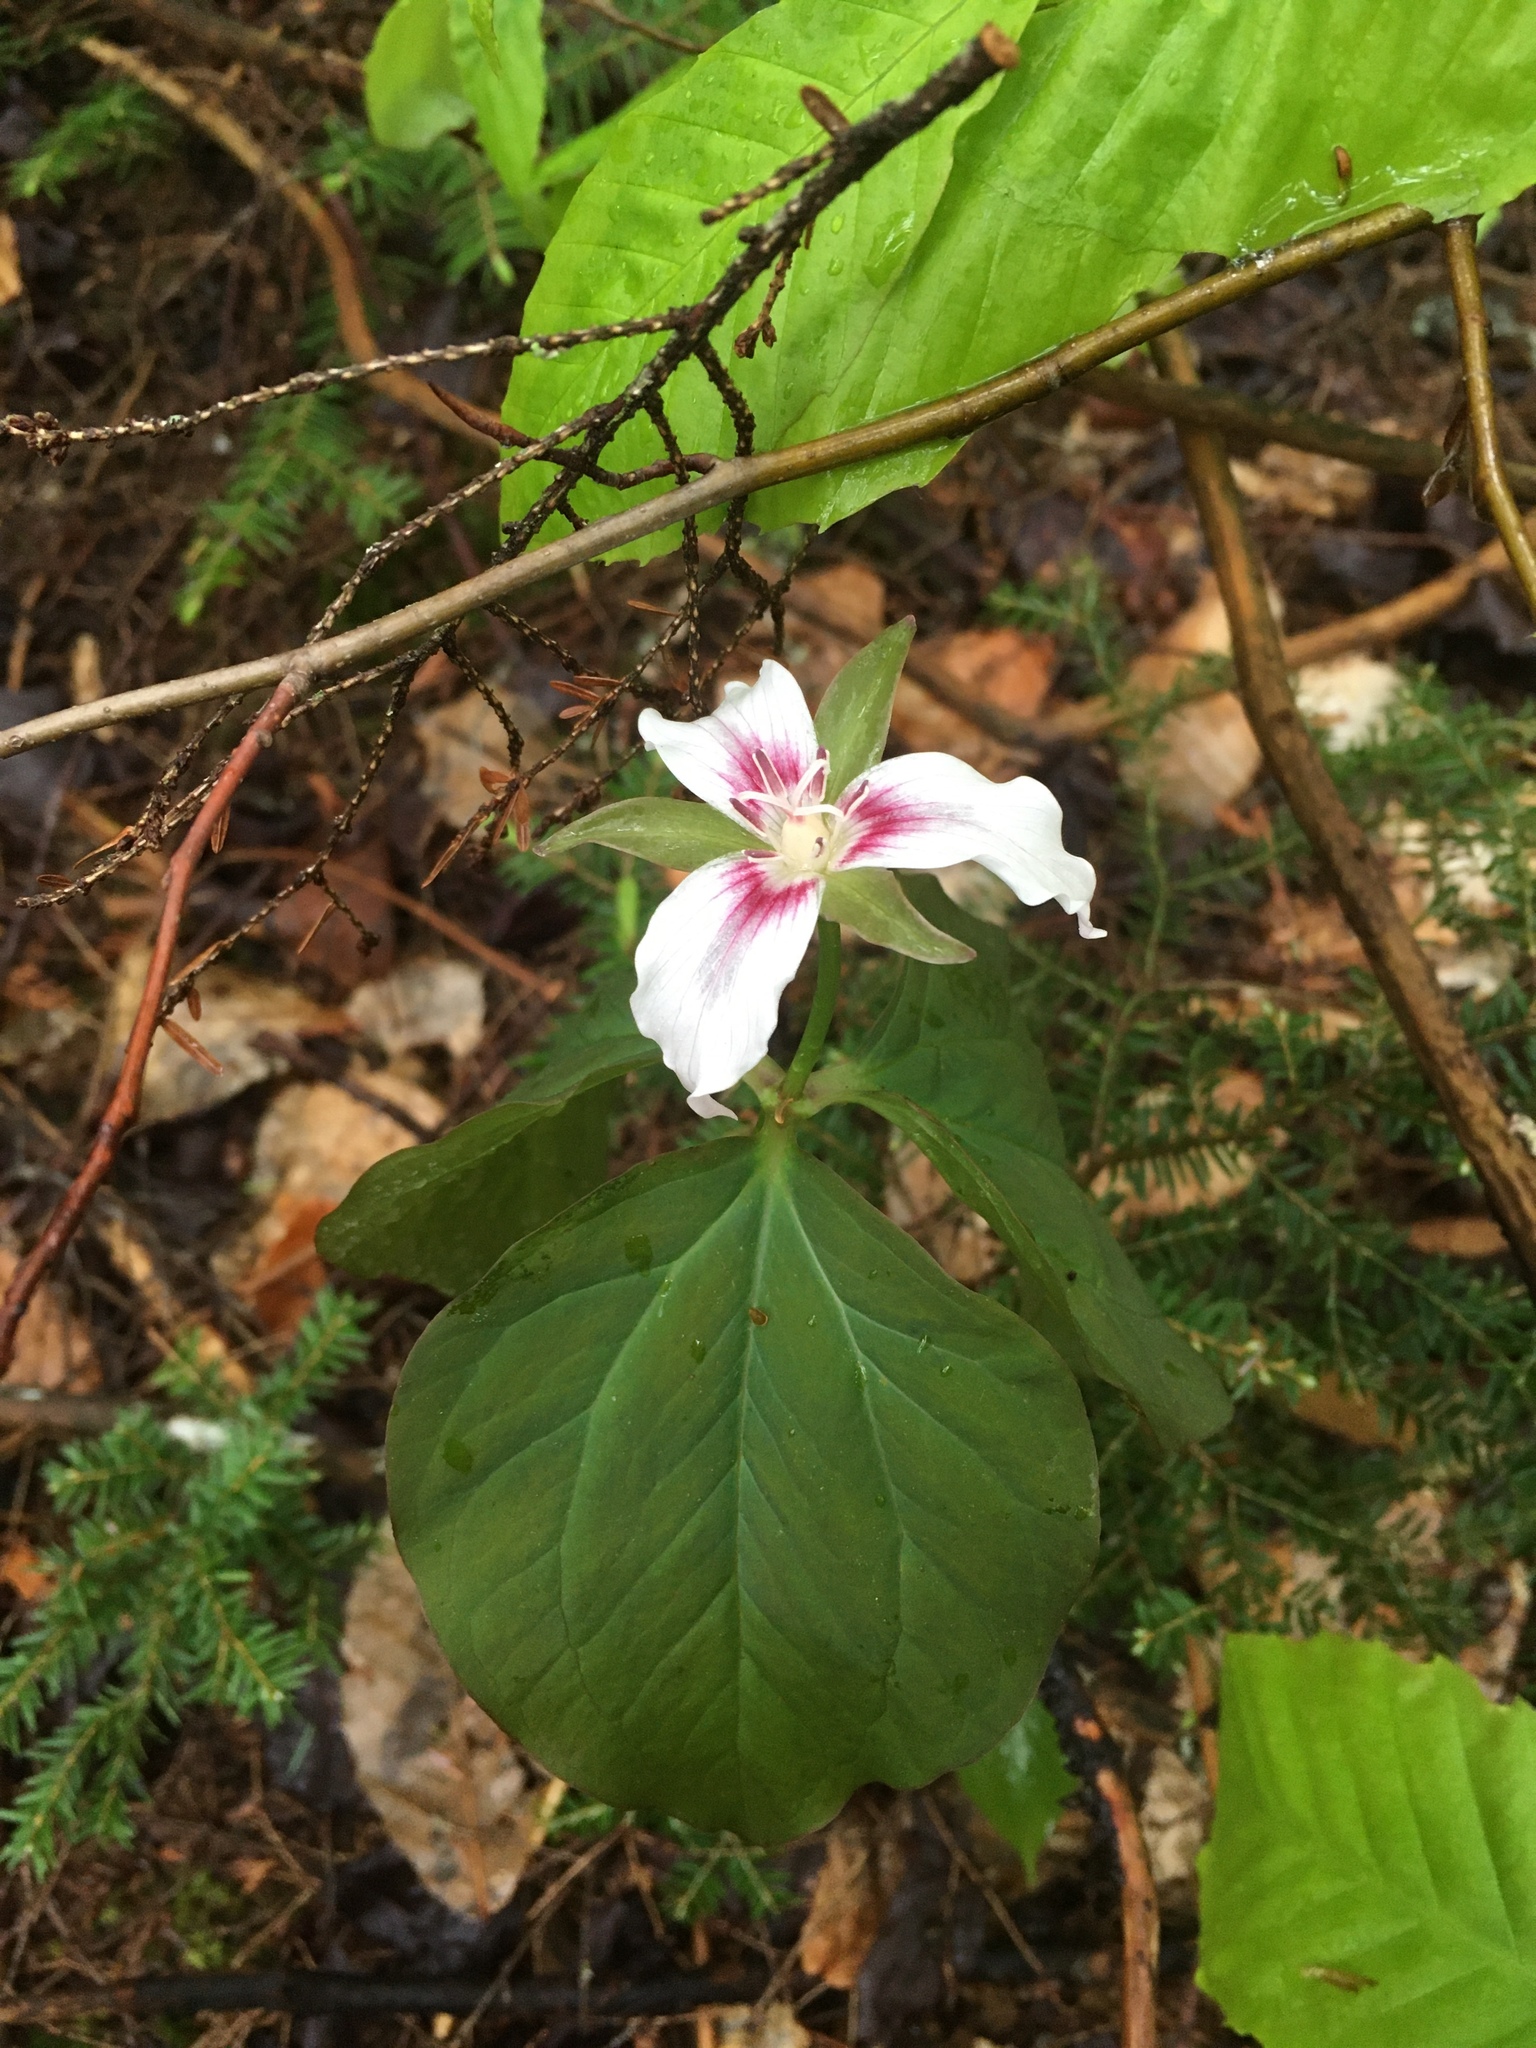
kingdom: Plantae
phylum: Tracheophyta
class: Liliopsida
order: Liliales
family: Melanthiaceae
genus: Trillium
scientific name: Trillium undulatum
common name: Paint trillium
